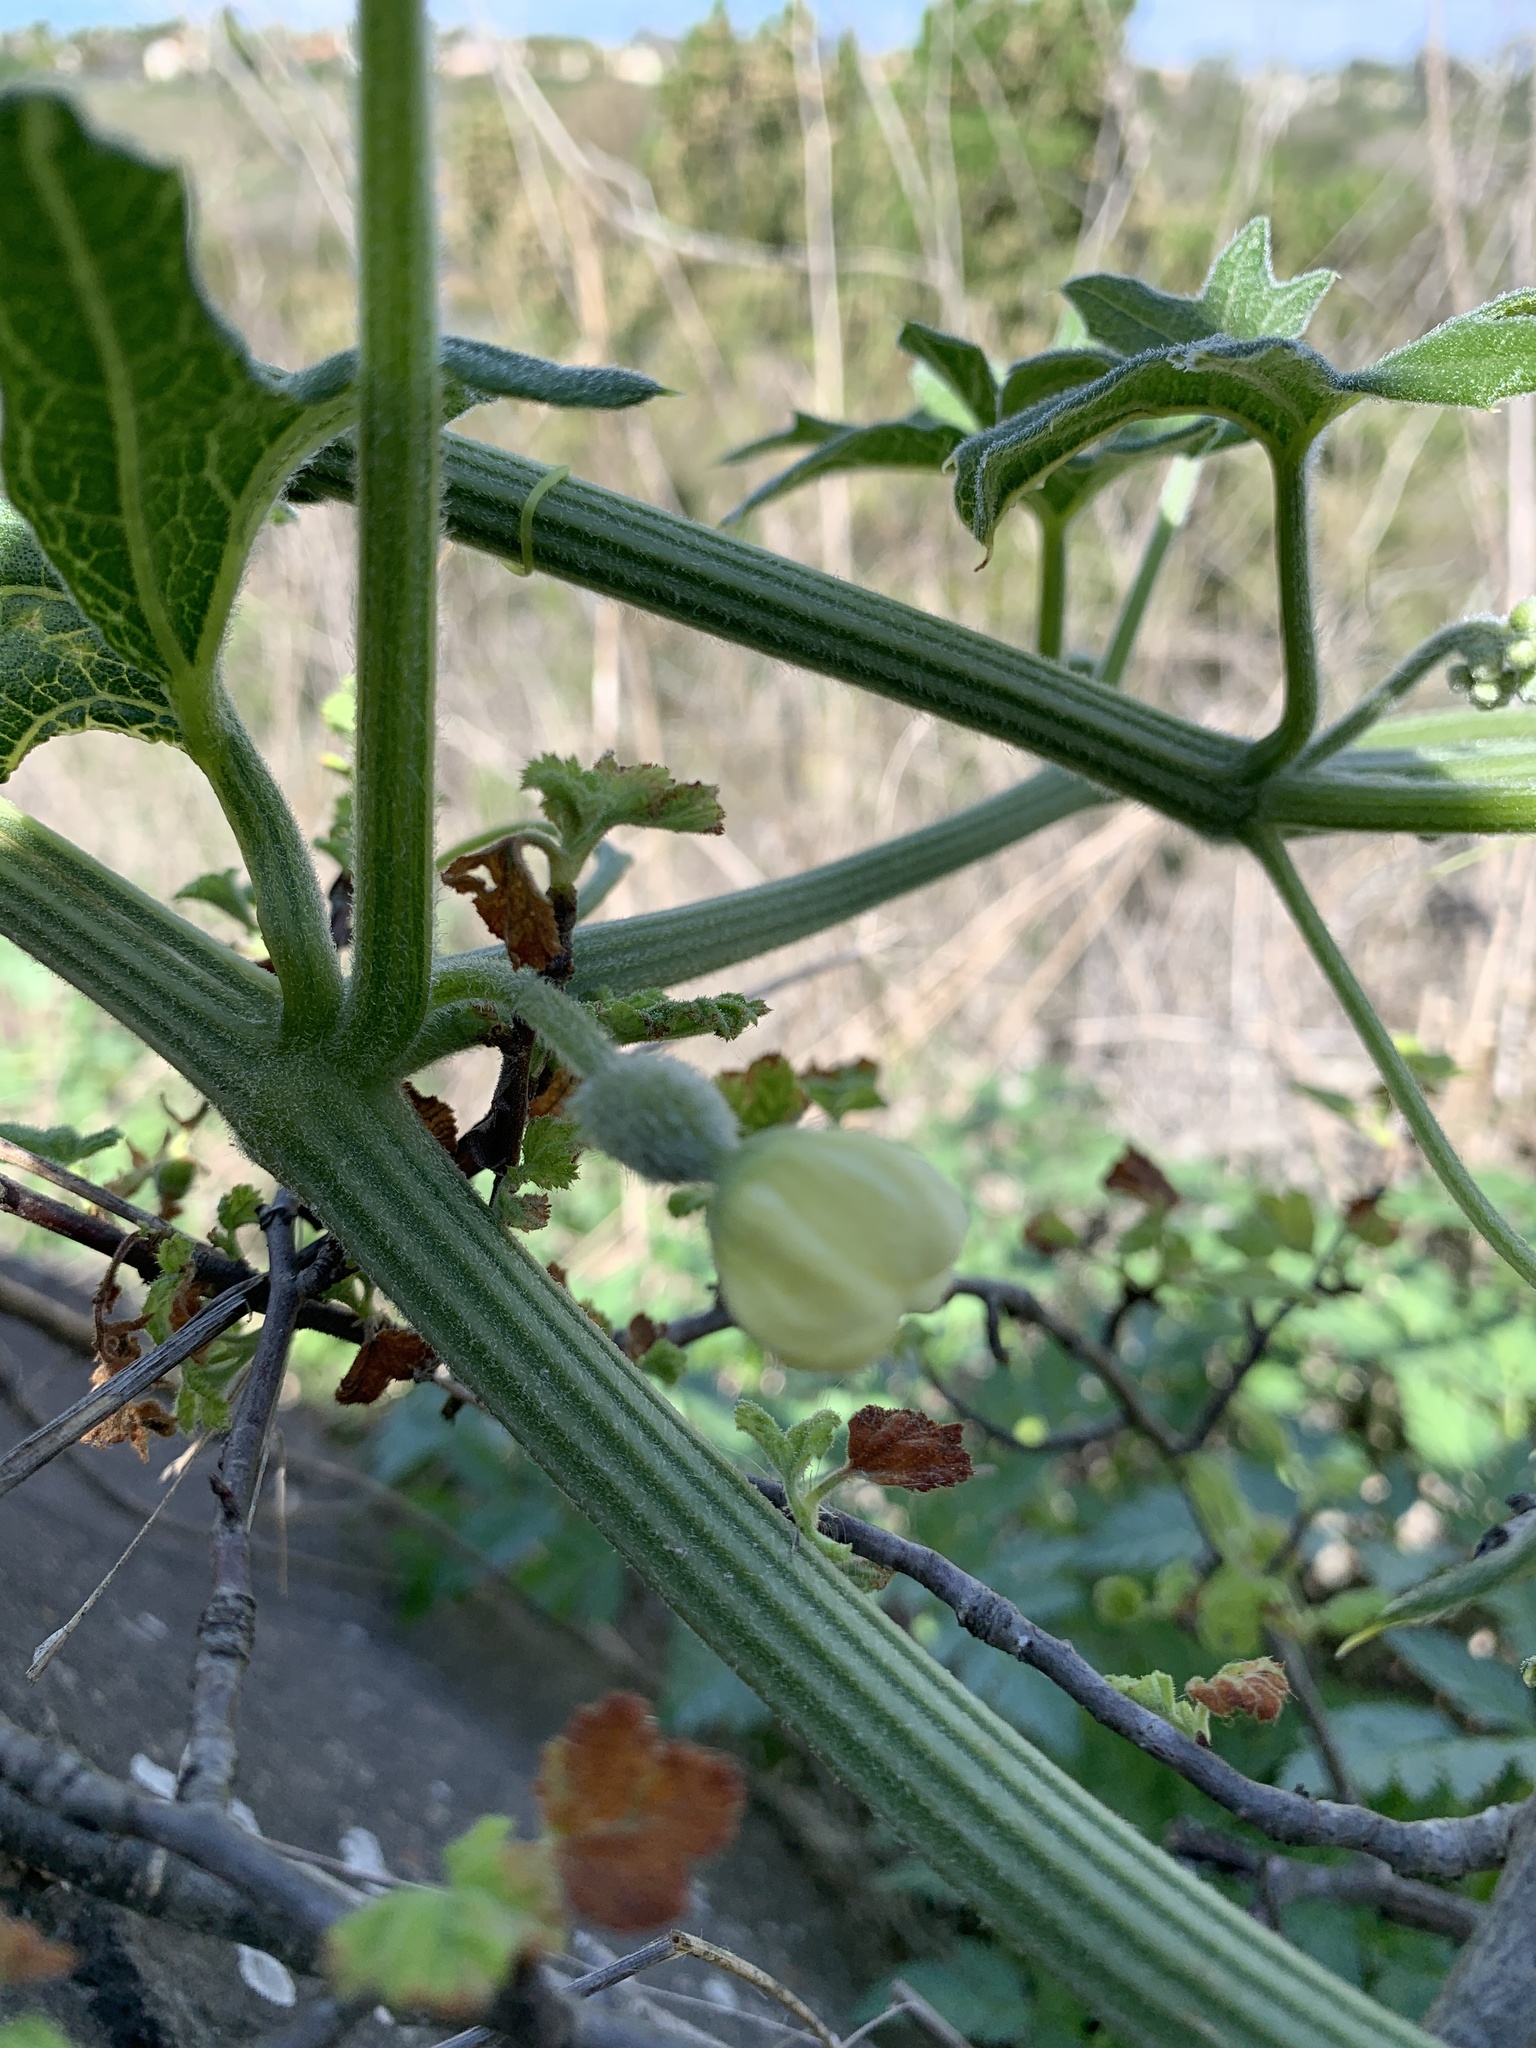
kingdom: Plantae
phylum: Tracheophyta
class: Magnoliopsida
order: Cucurbitales
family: Cucurbitaceae
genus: Marah
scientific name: Marah macrocarpa
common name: Cucamonga manroot
